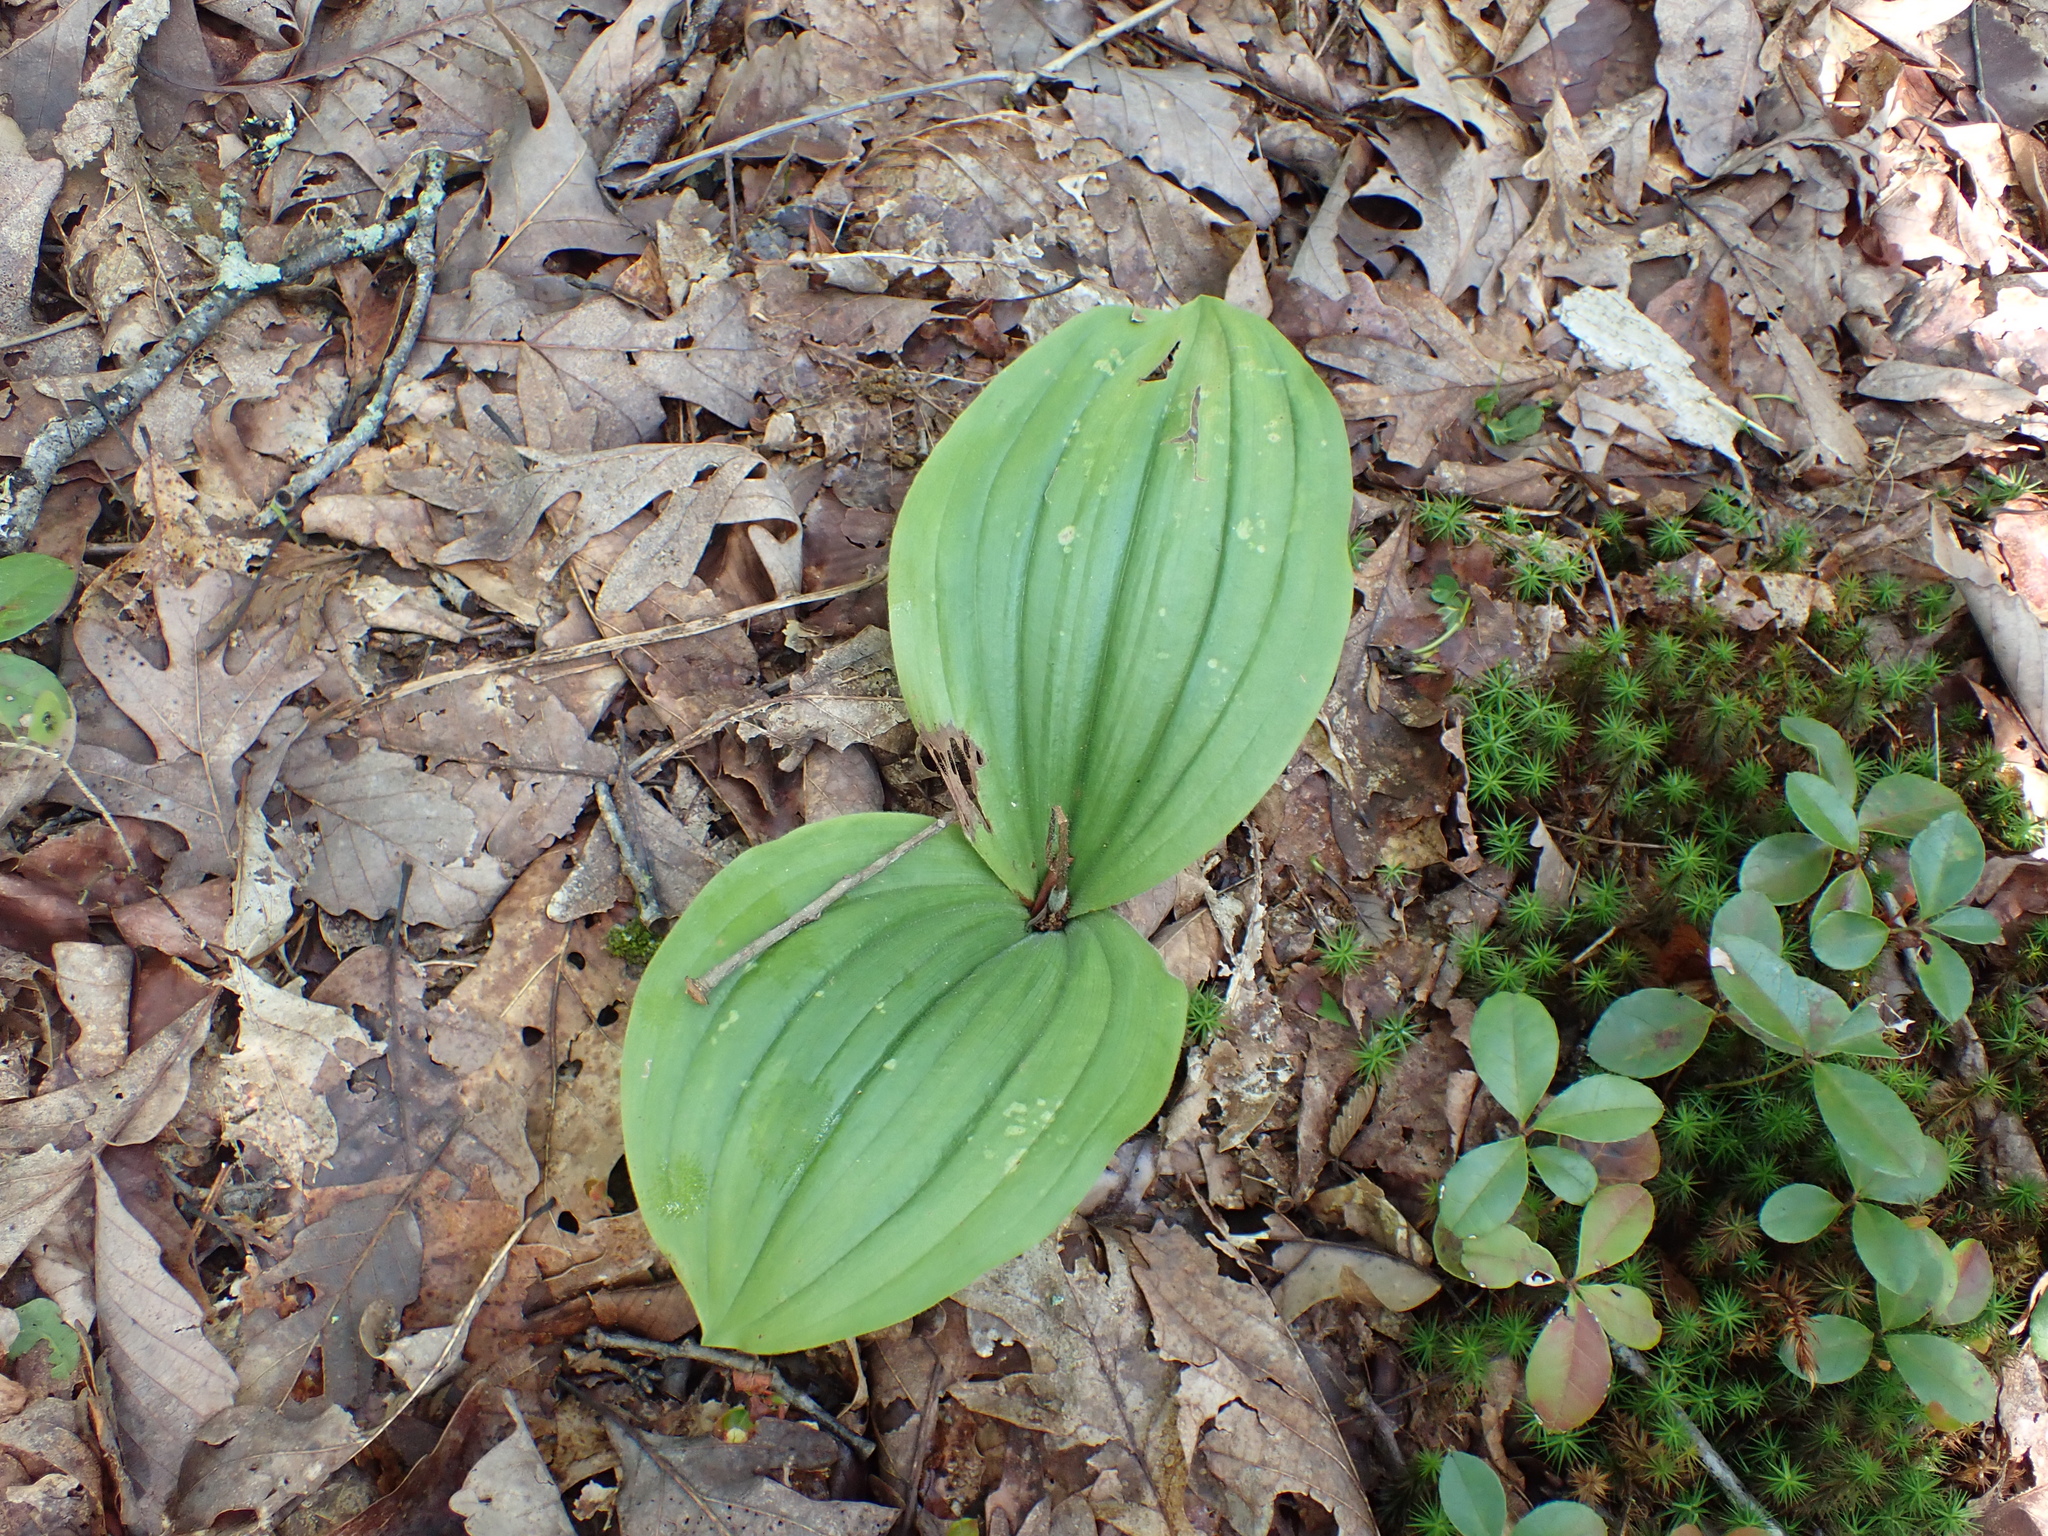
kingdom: Plantae
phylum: Tracheophyta
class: Liliopsida
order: Asparagales
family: Orchidaceae
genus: Cypripedium
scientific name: Cypripedium acaule
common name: Pink lady's-slipper
